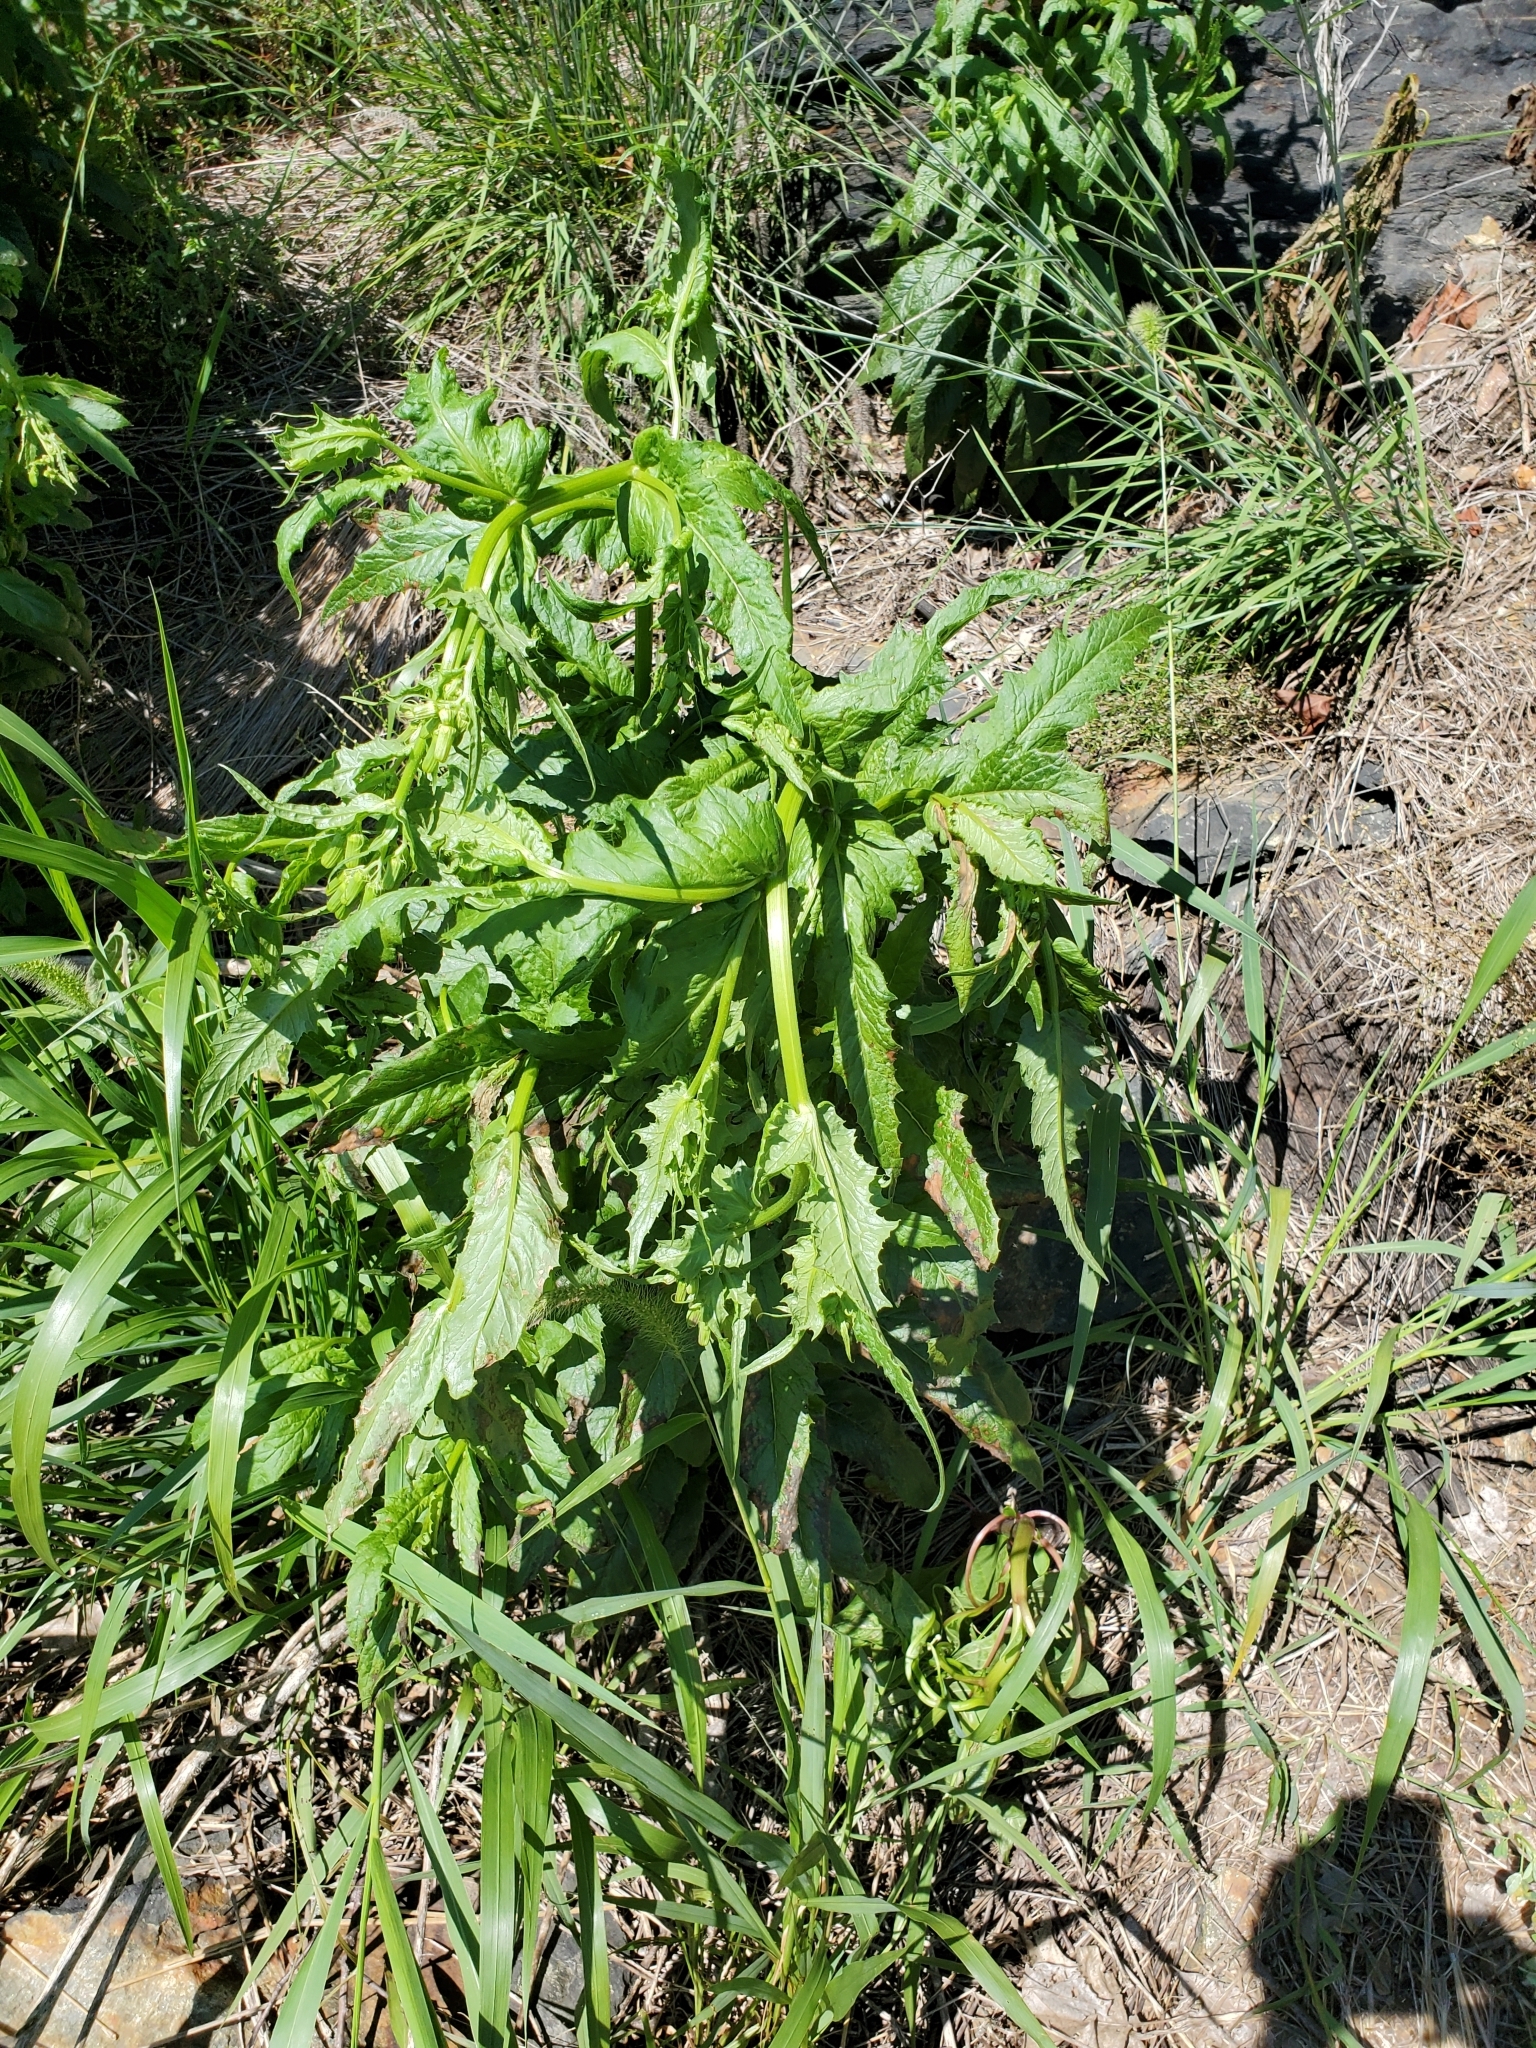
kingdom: Plantae
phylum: Tracheophyta
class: Magnoliopsida
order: Asterales
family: Asteraceae
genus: Erechtites
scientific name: Erechtites hieraciifolius
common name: American burnweed
